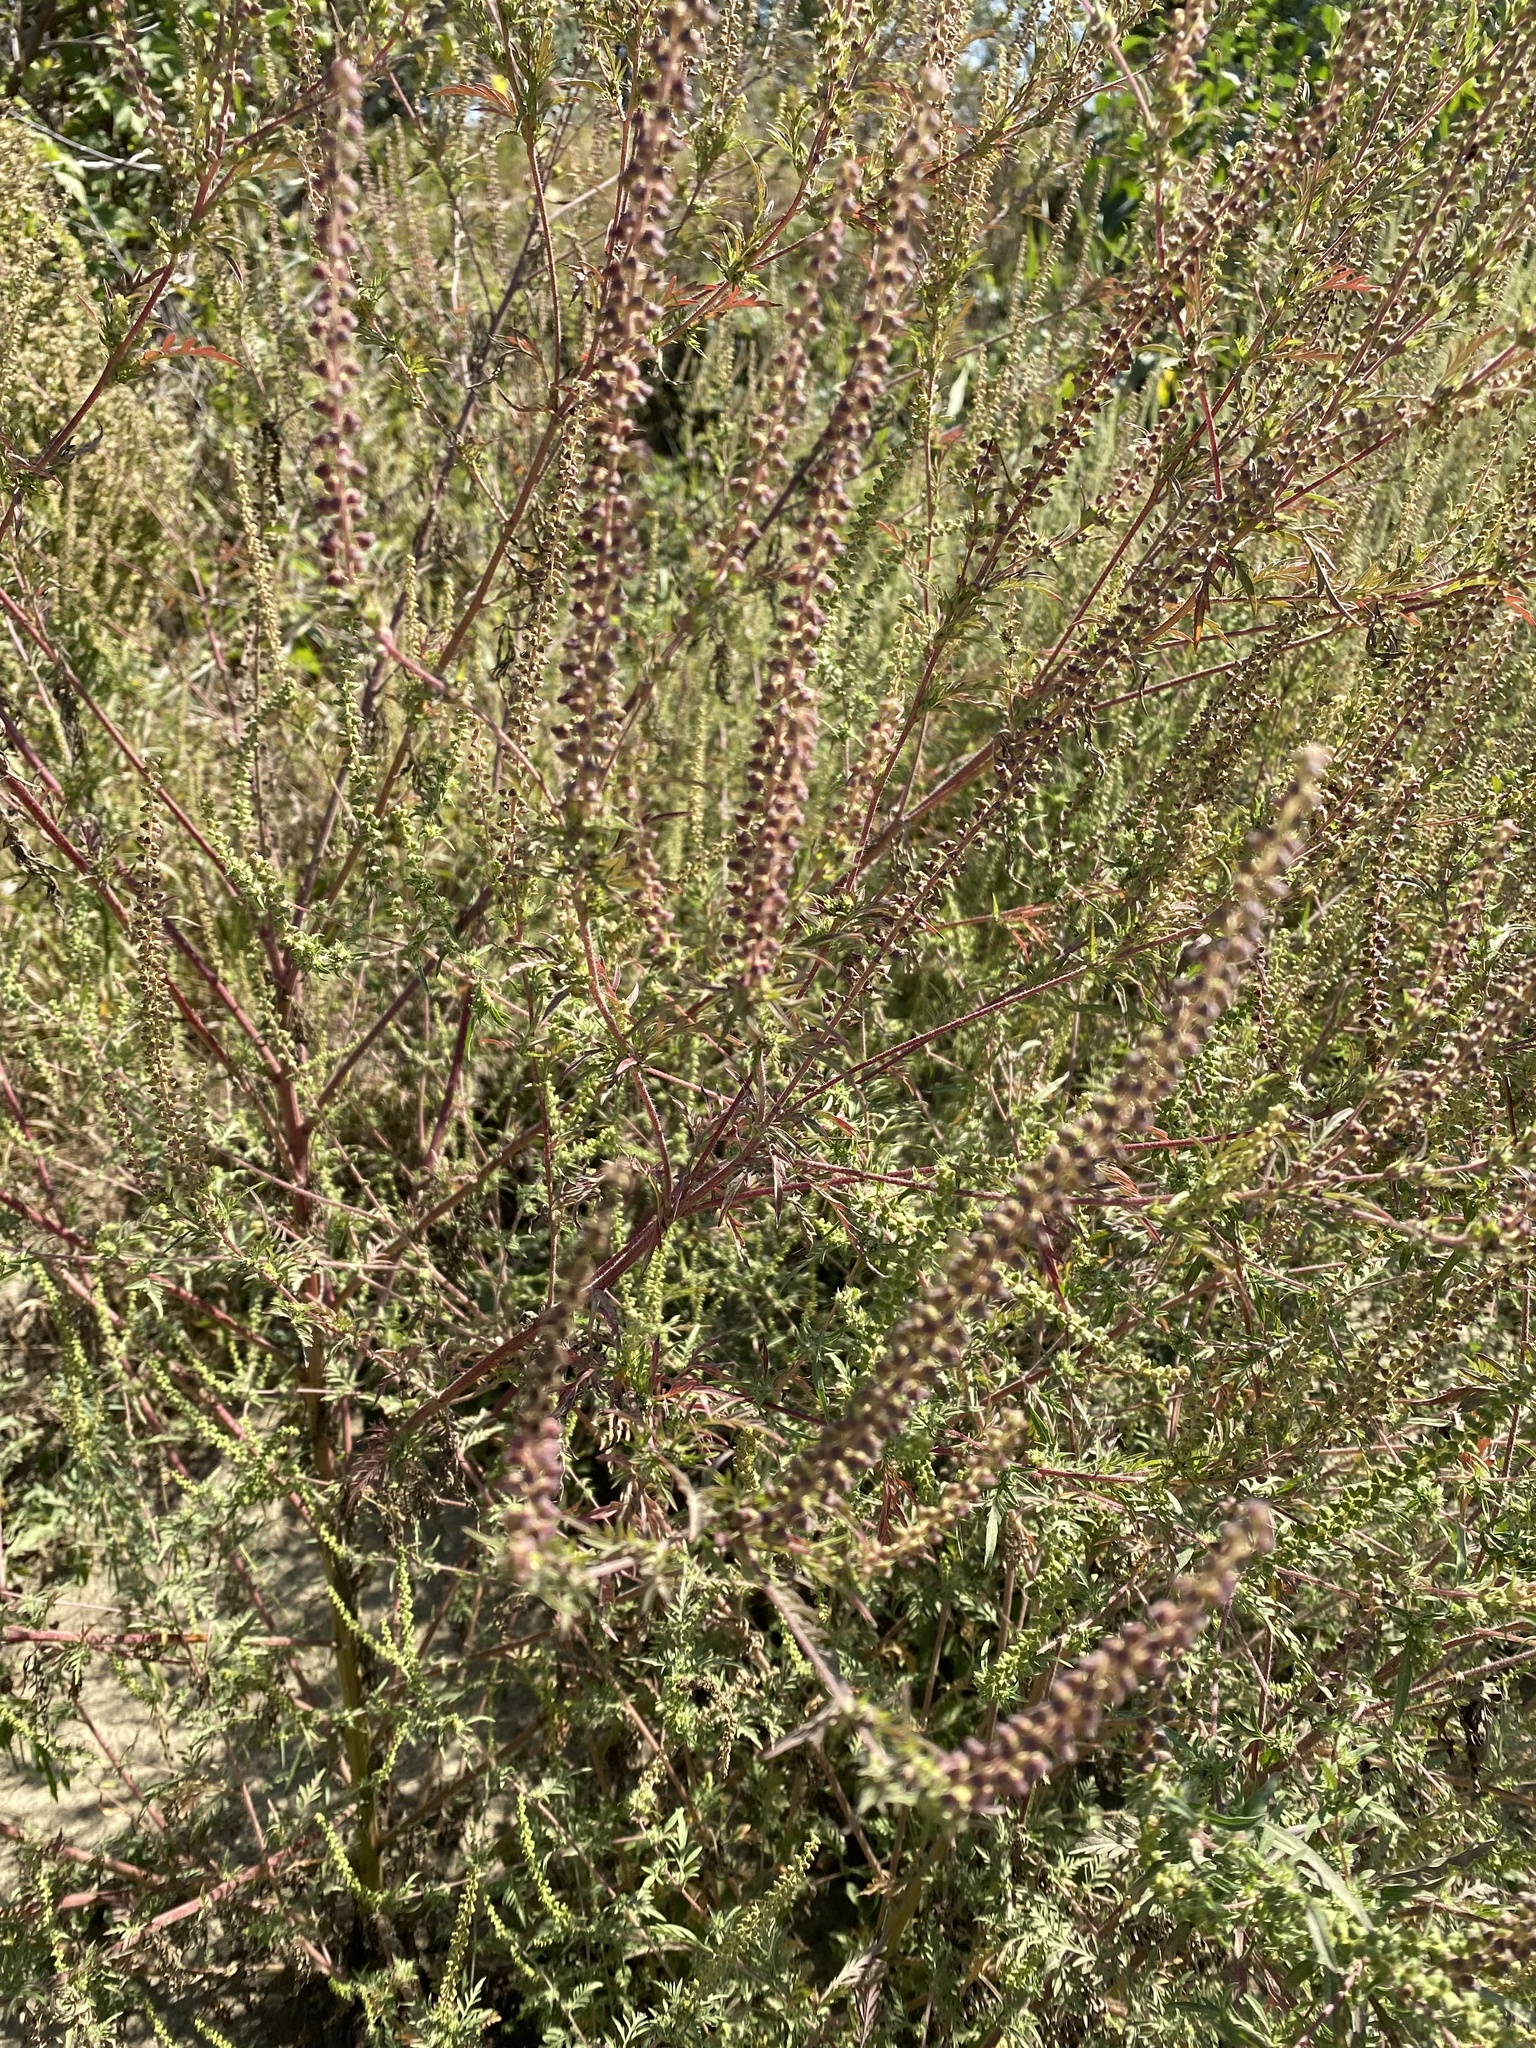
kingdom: Plantae
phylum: Tracheophyta
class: Magnoliopsida
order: Asterales
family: Asteraceae
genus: Ambrosia
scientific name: Ambrosia artemisiifolia
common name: Annual ragweed
